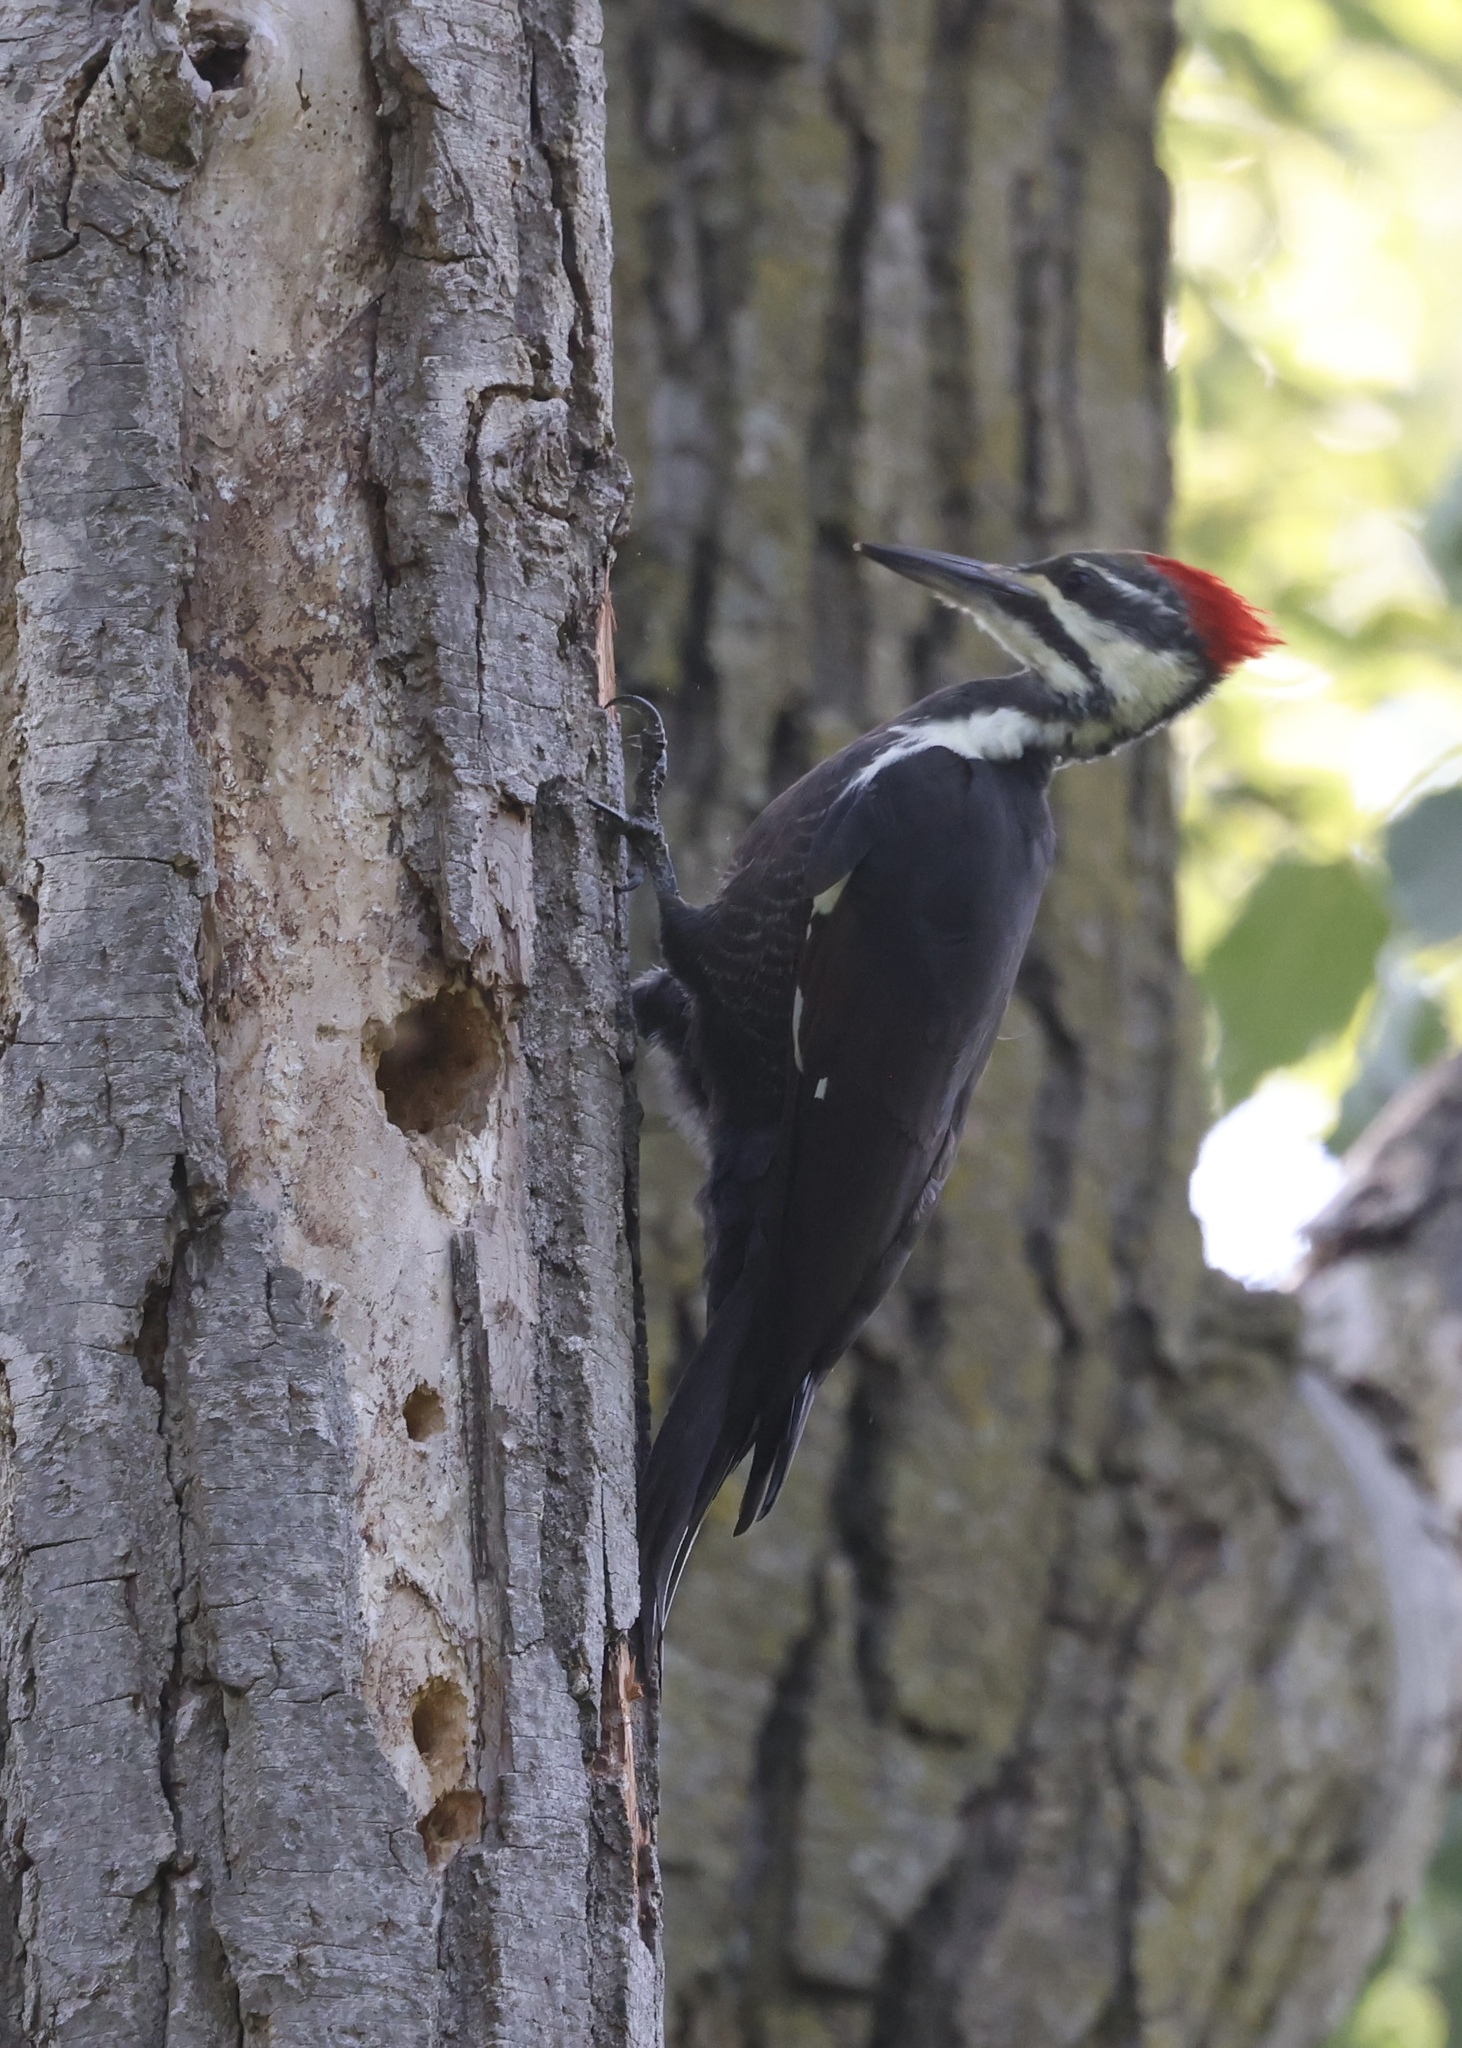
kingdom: Animalia
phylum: Chordata
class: Aves
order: Piciformes
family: Picidae
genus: Dryocopus
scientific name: Dryocopus pileatus
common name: Pileated woodpecker
